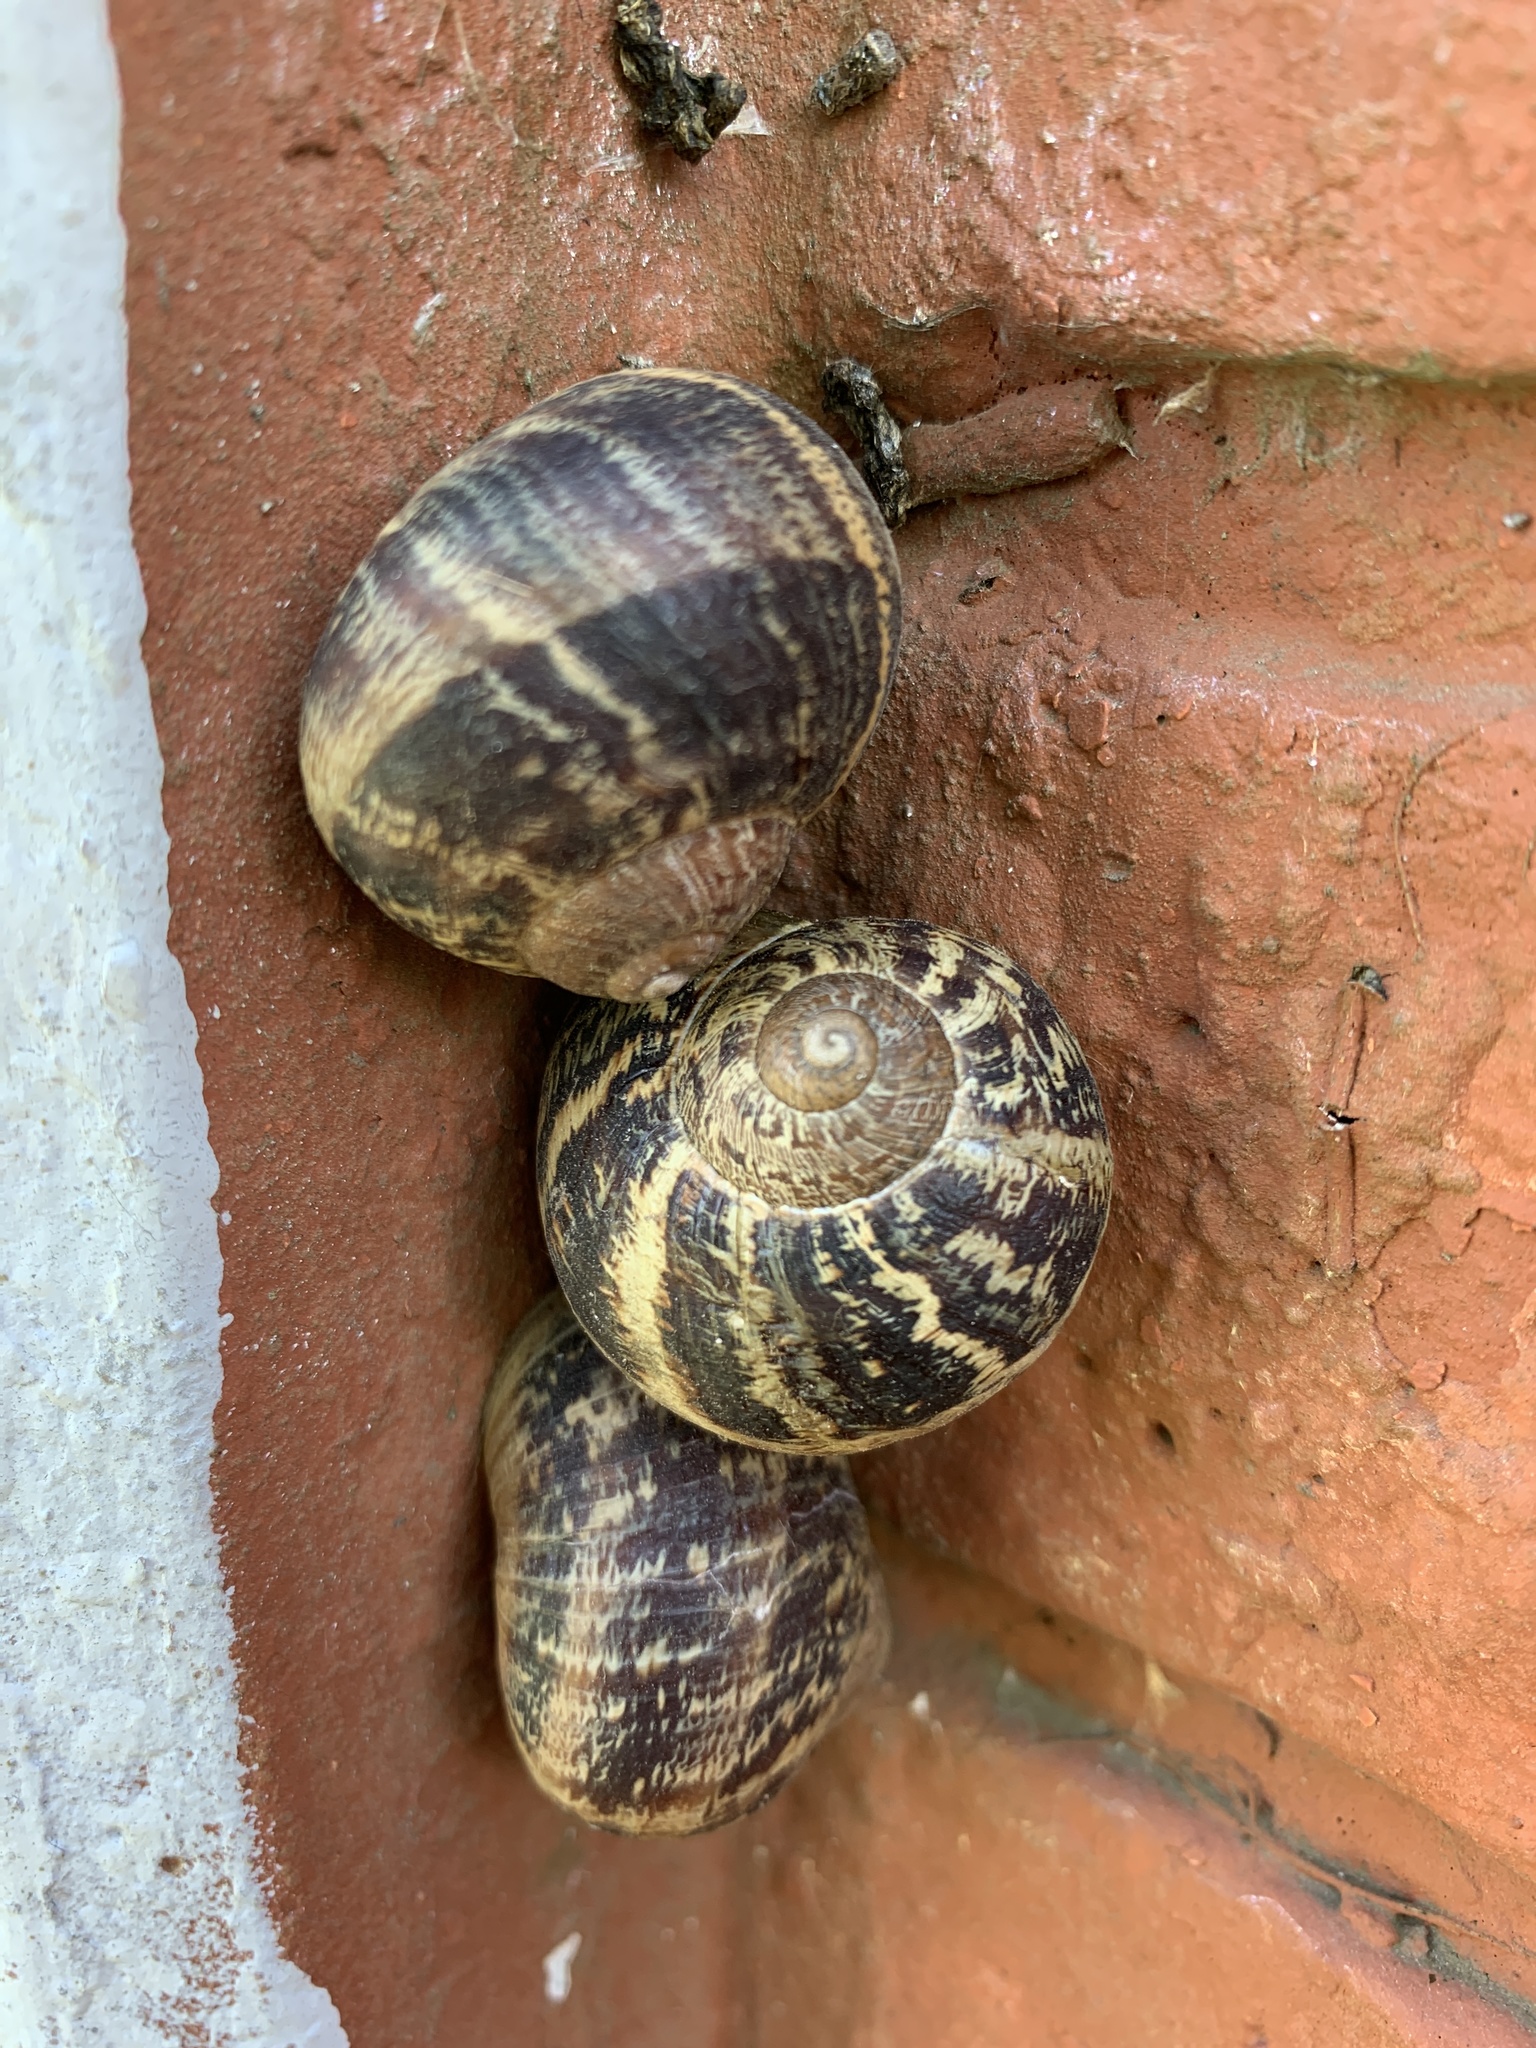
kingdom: Animalia
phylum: Mollusca
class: Gastropoda
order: Stylommatophora
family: Helicidae
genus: Cornu
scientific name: Cornu aspersum
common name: Brown garden snail
